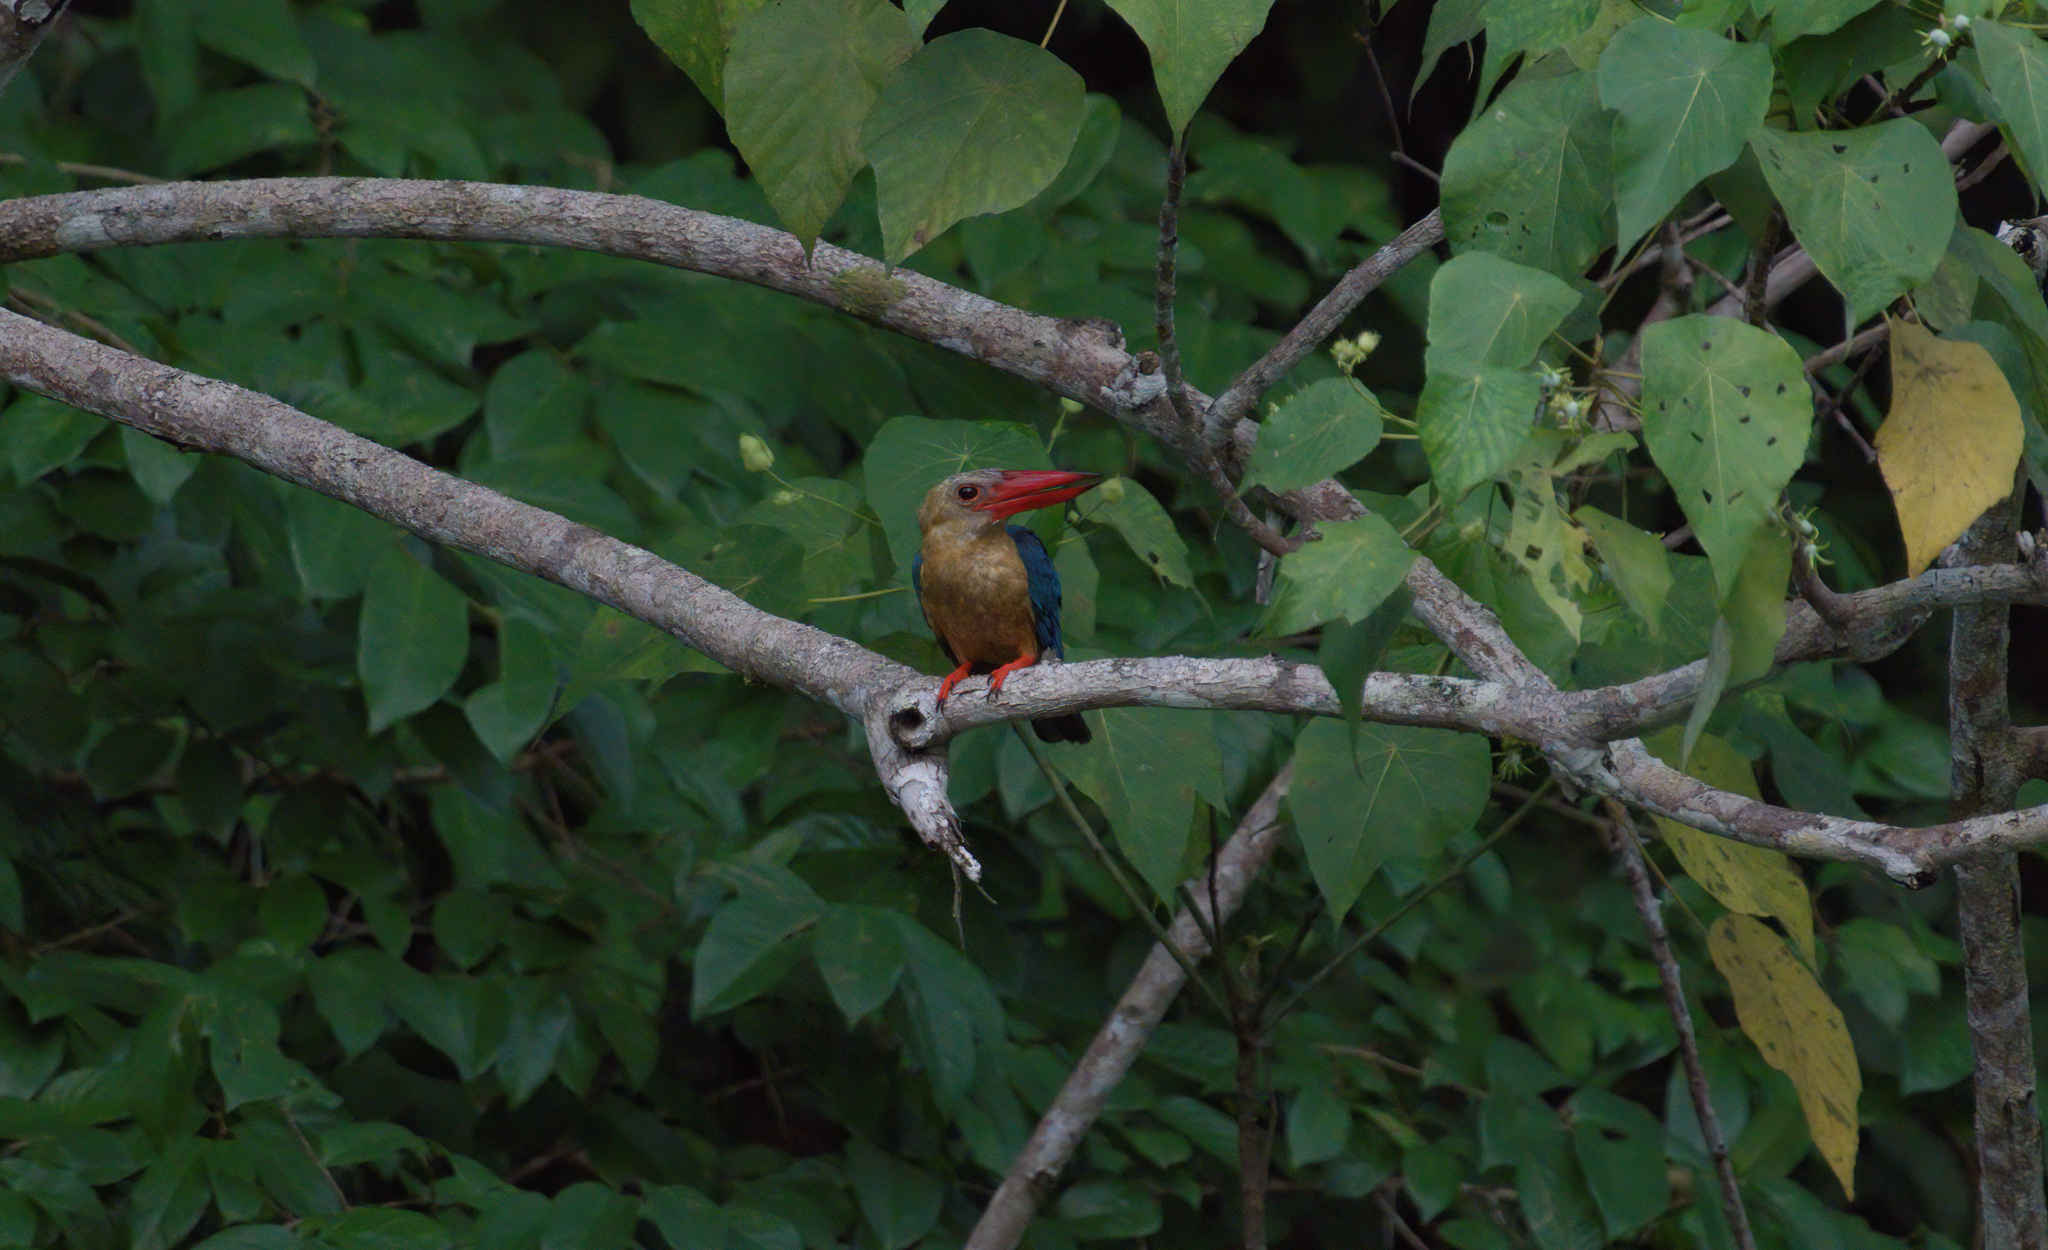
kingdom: Animalia
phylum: Chordata
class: Aves
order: Coraciiformes
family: Alcedinidae
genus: Pelargopsis
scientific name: Pelargopsis capensis
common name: Stork-billed kingfisher
